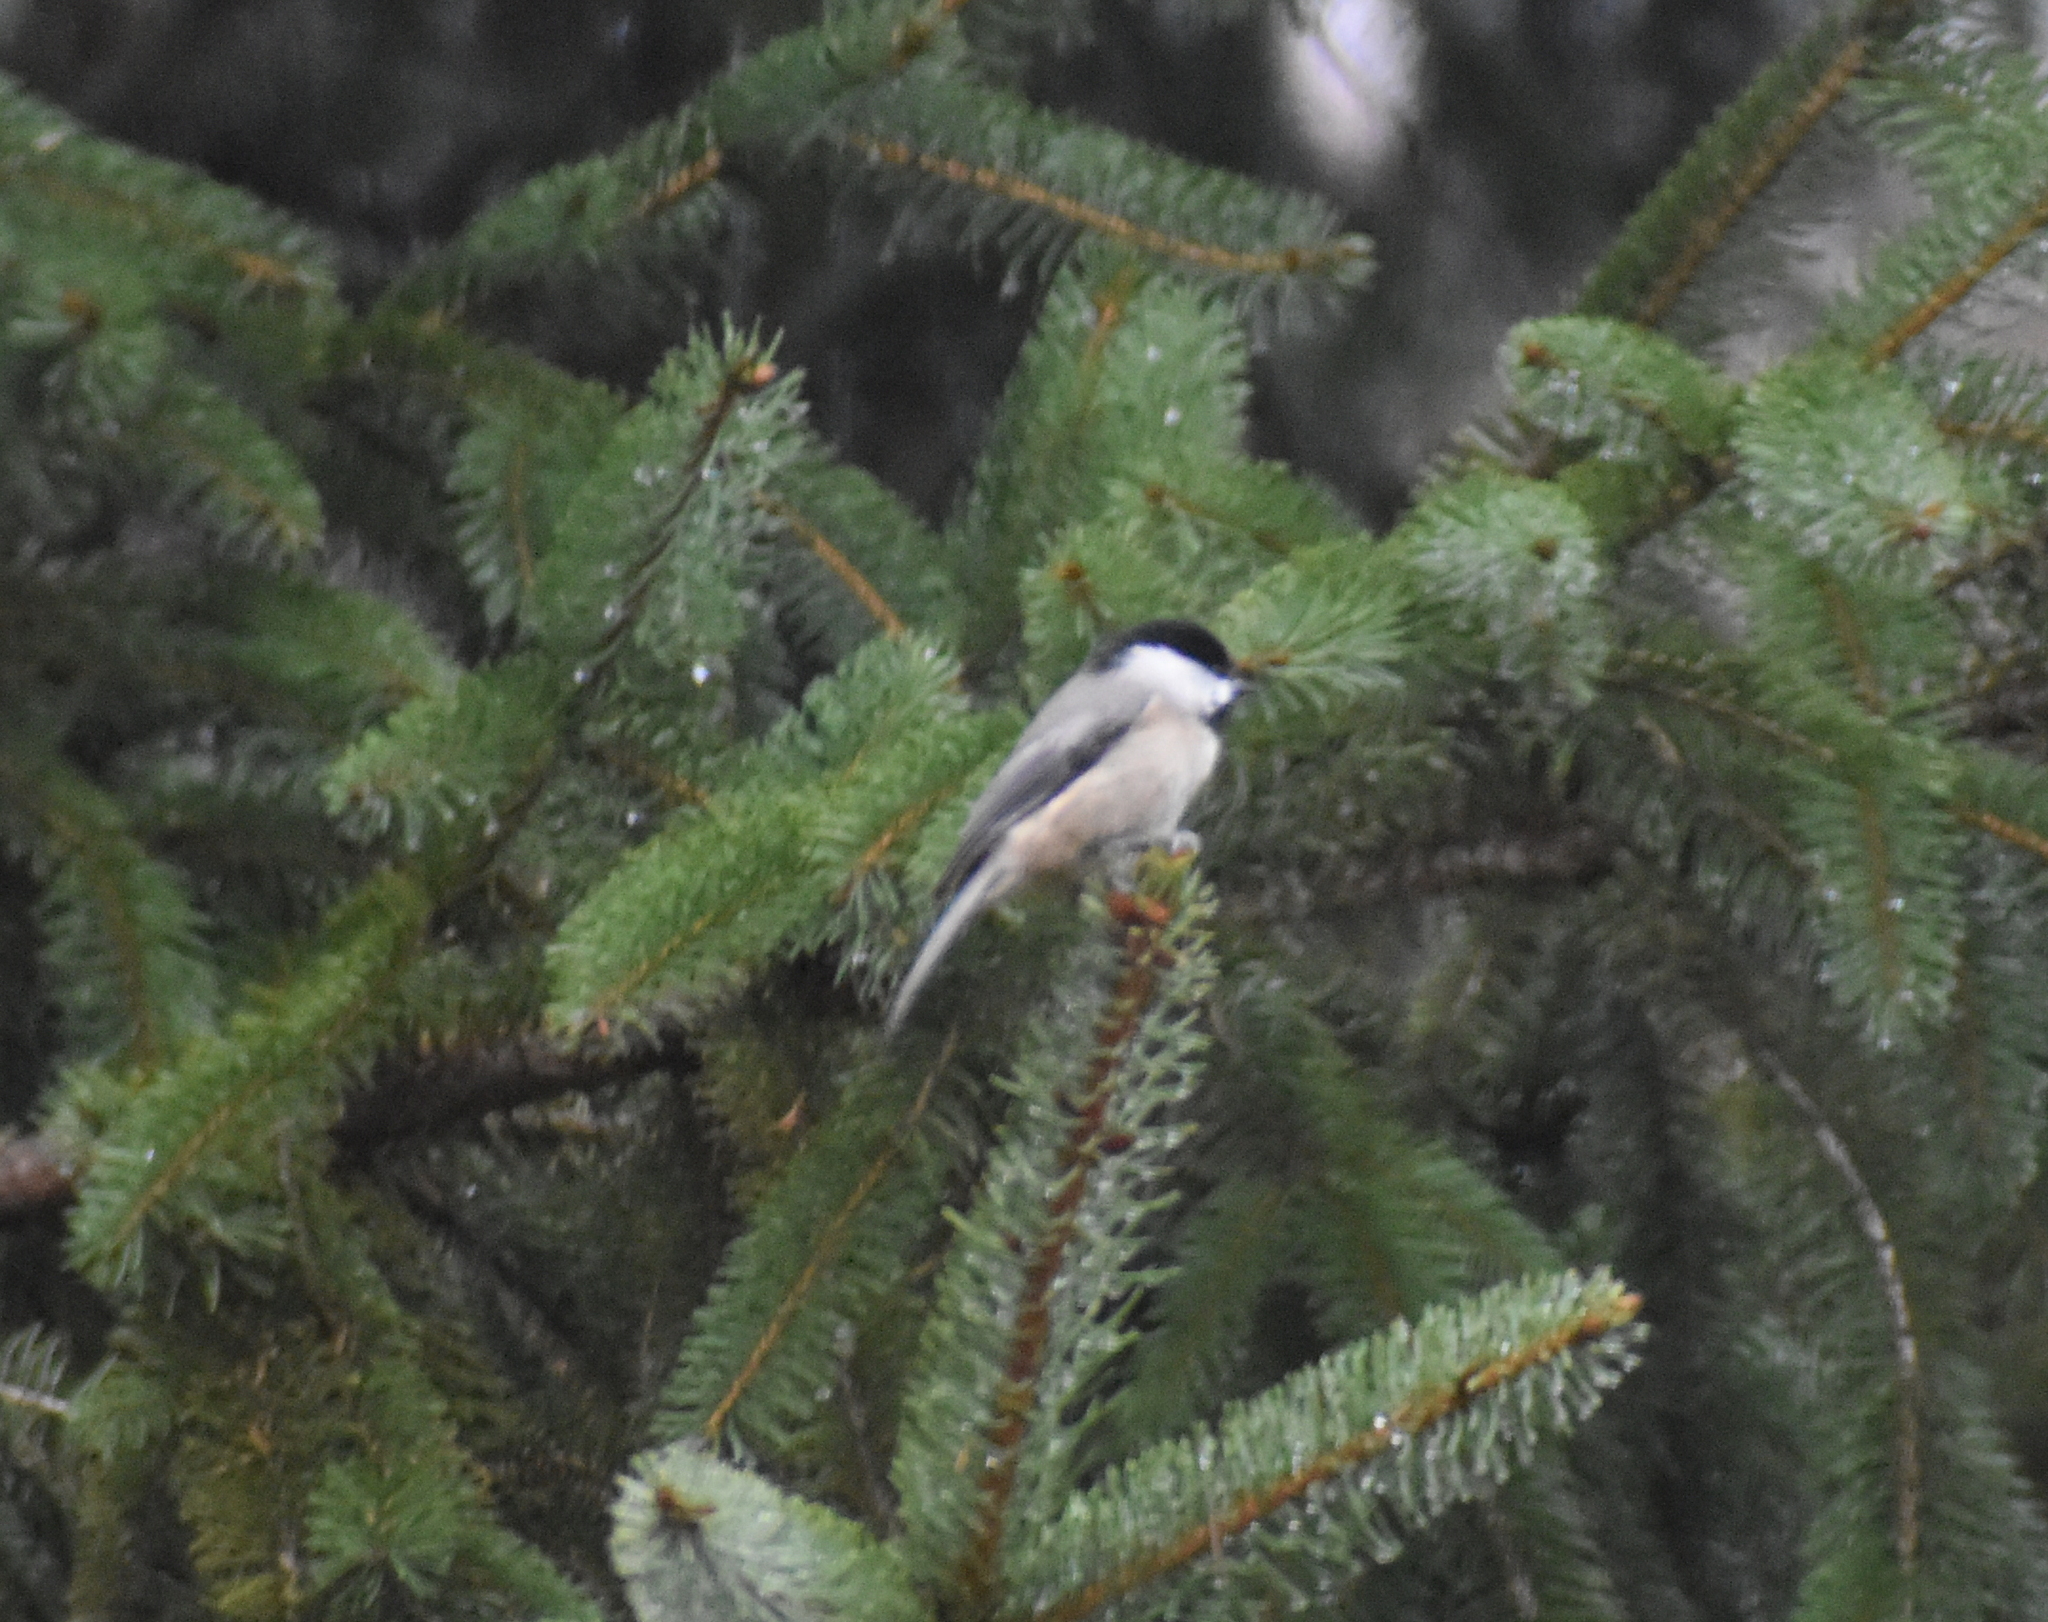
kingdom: Animalia
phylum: Chordata
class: Aves
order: Passeriformes
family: Paridae
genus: Poecile
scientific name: Poecile carolinensis
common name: Carolina chickadee
